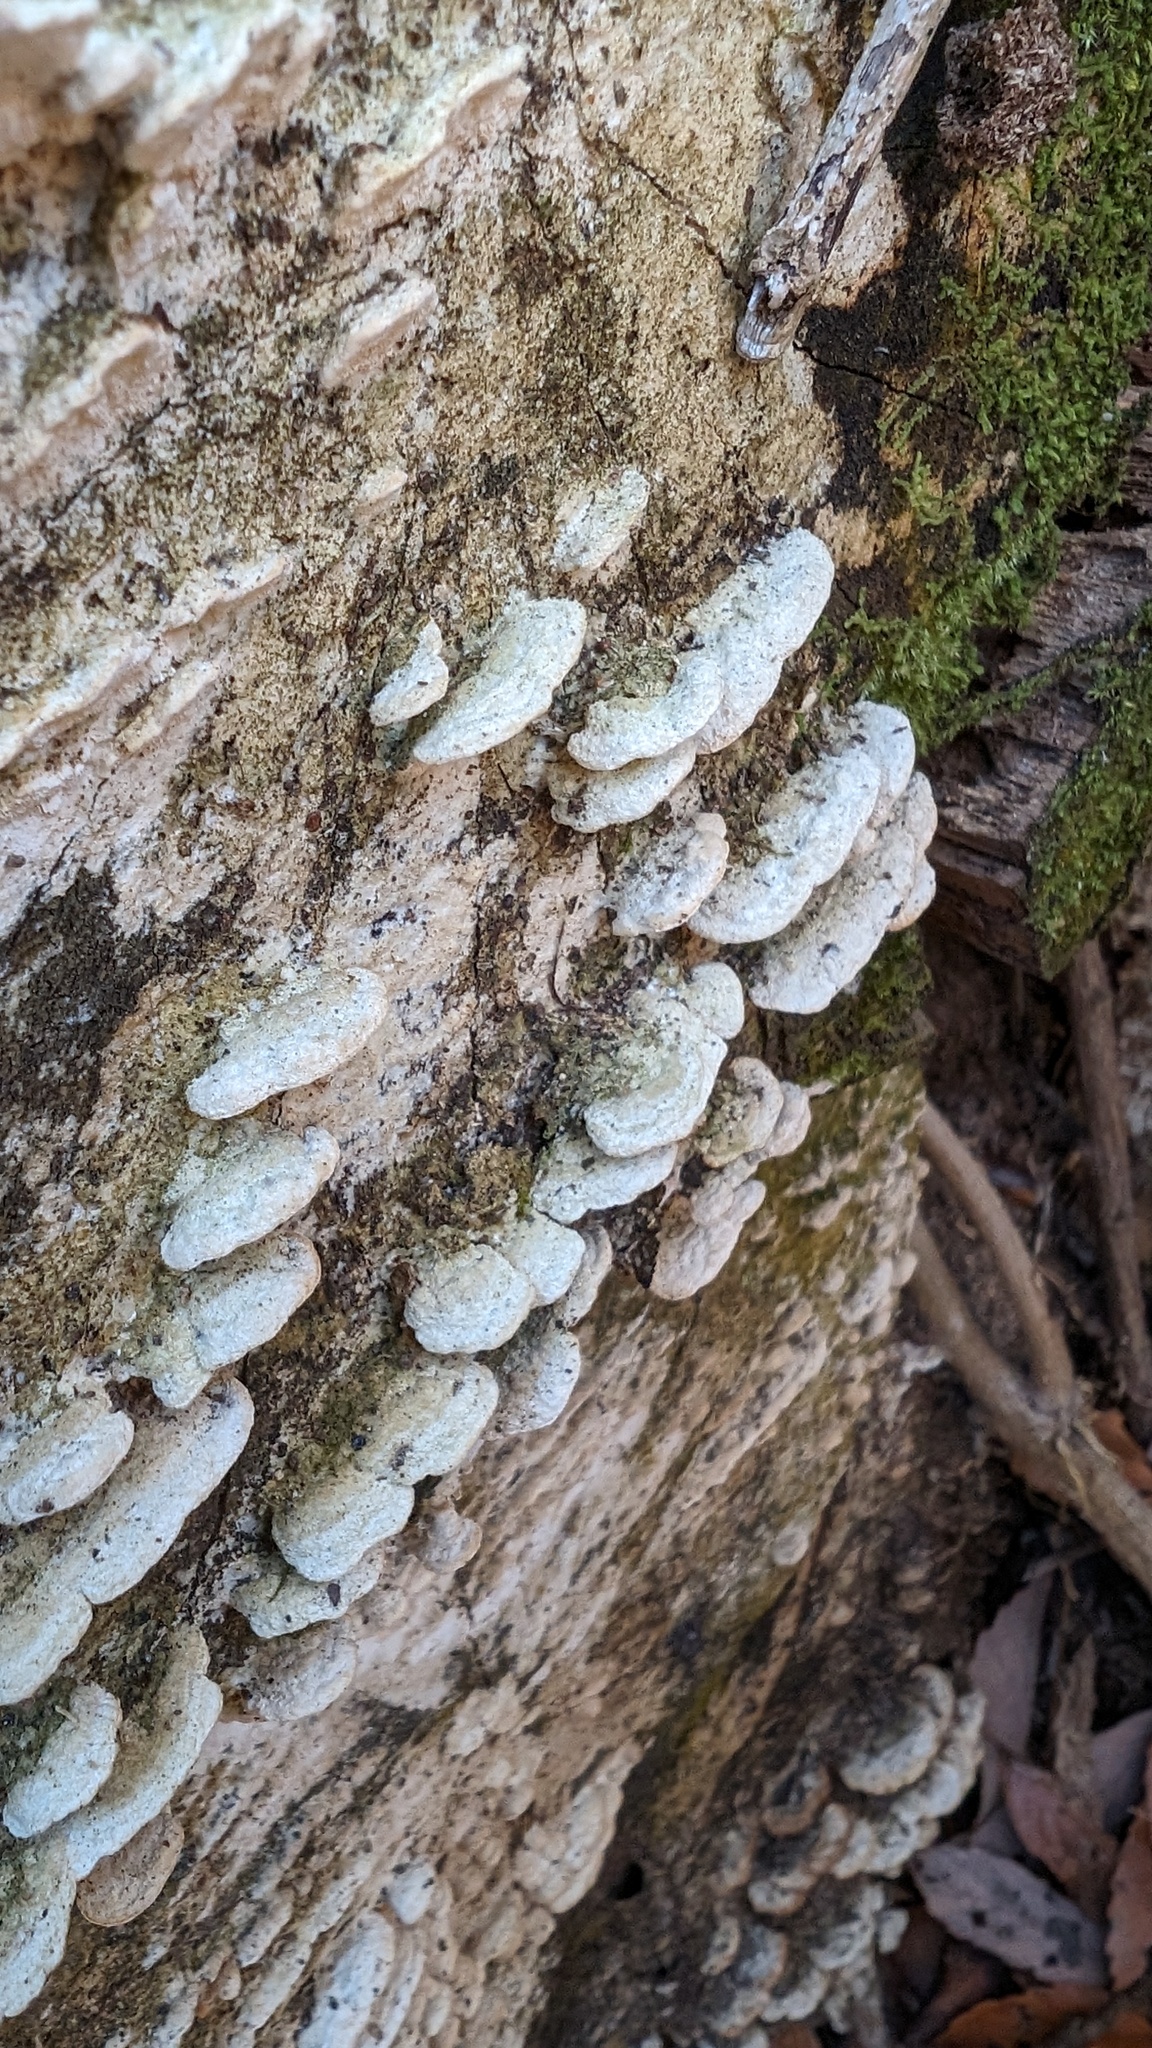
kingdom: Fungi
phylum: Basidiomycota
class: Agaricomycetes
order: Hymenochaetales
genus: Cyanotrama
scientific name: Cyanotrama
